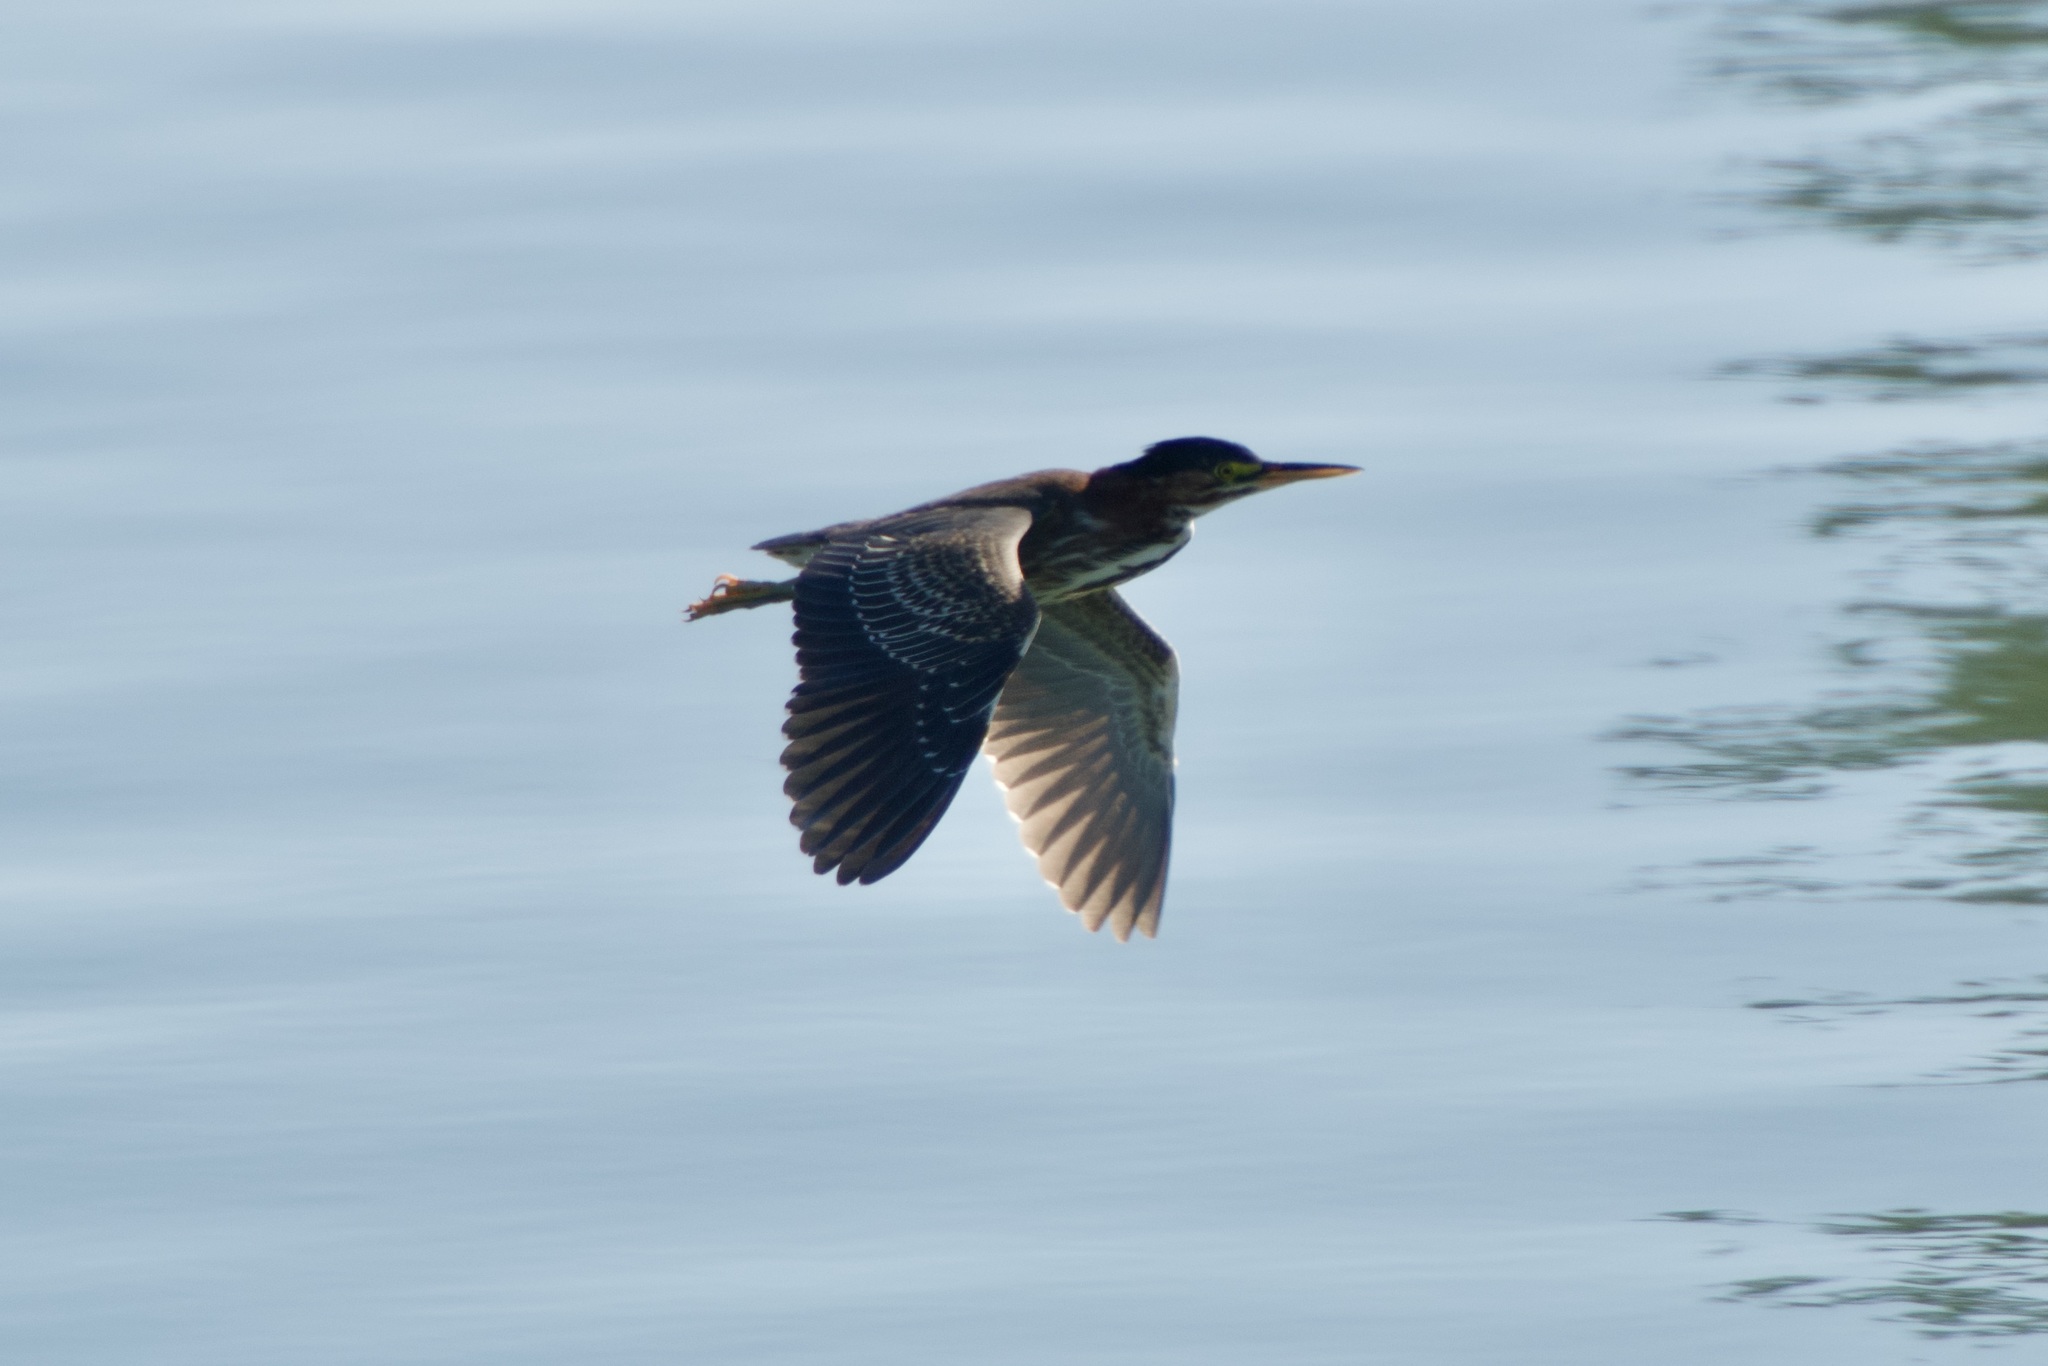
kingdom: Animalia
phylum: Chordata
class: Aves
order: Pelecaniformes
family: Ardeidae
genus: Butorides
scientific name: Butorides virescens
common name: Green heron
